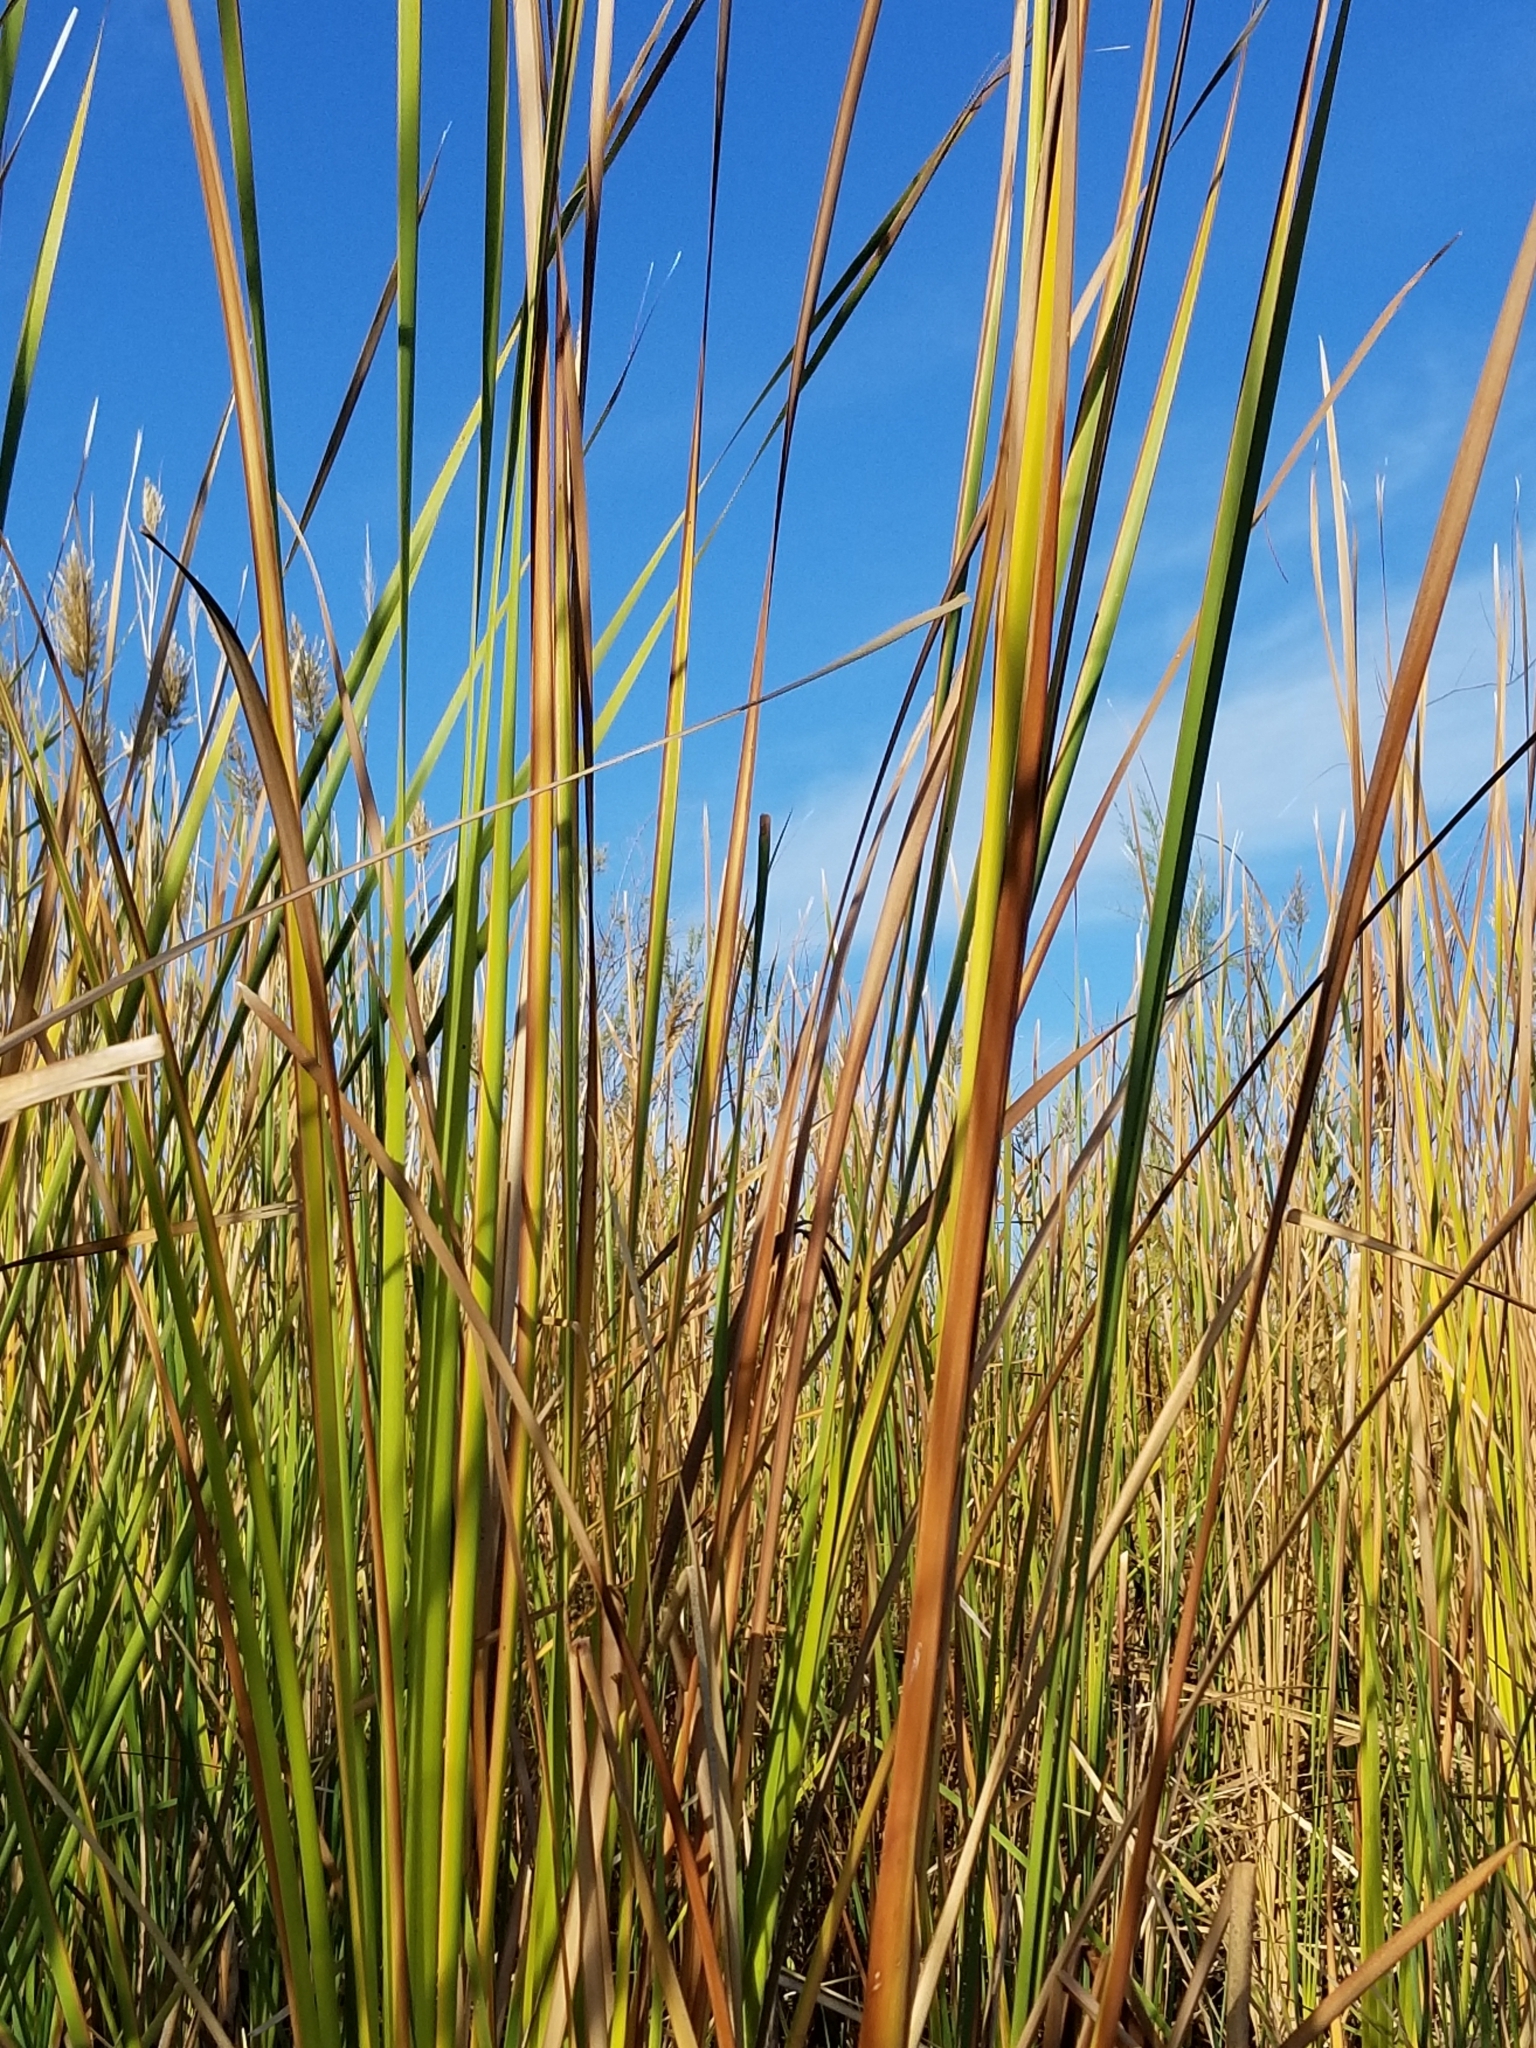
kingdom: Plantae
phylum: Tracheophyta
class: Liliopsida
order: Poales
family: Typhaceae
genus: Typha
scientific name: Typha domingensis
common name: Southern cattail
